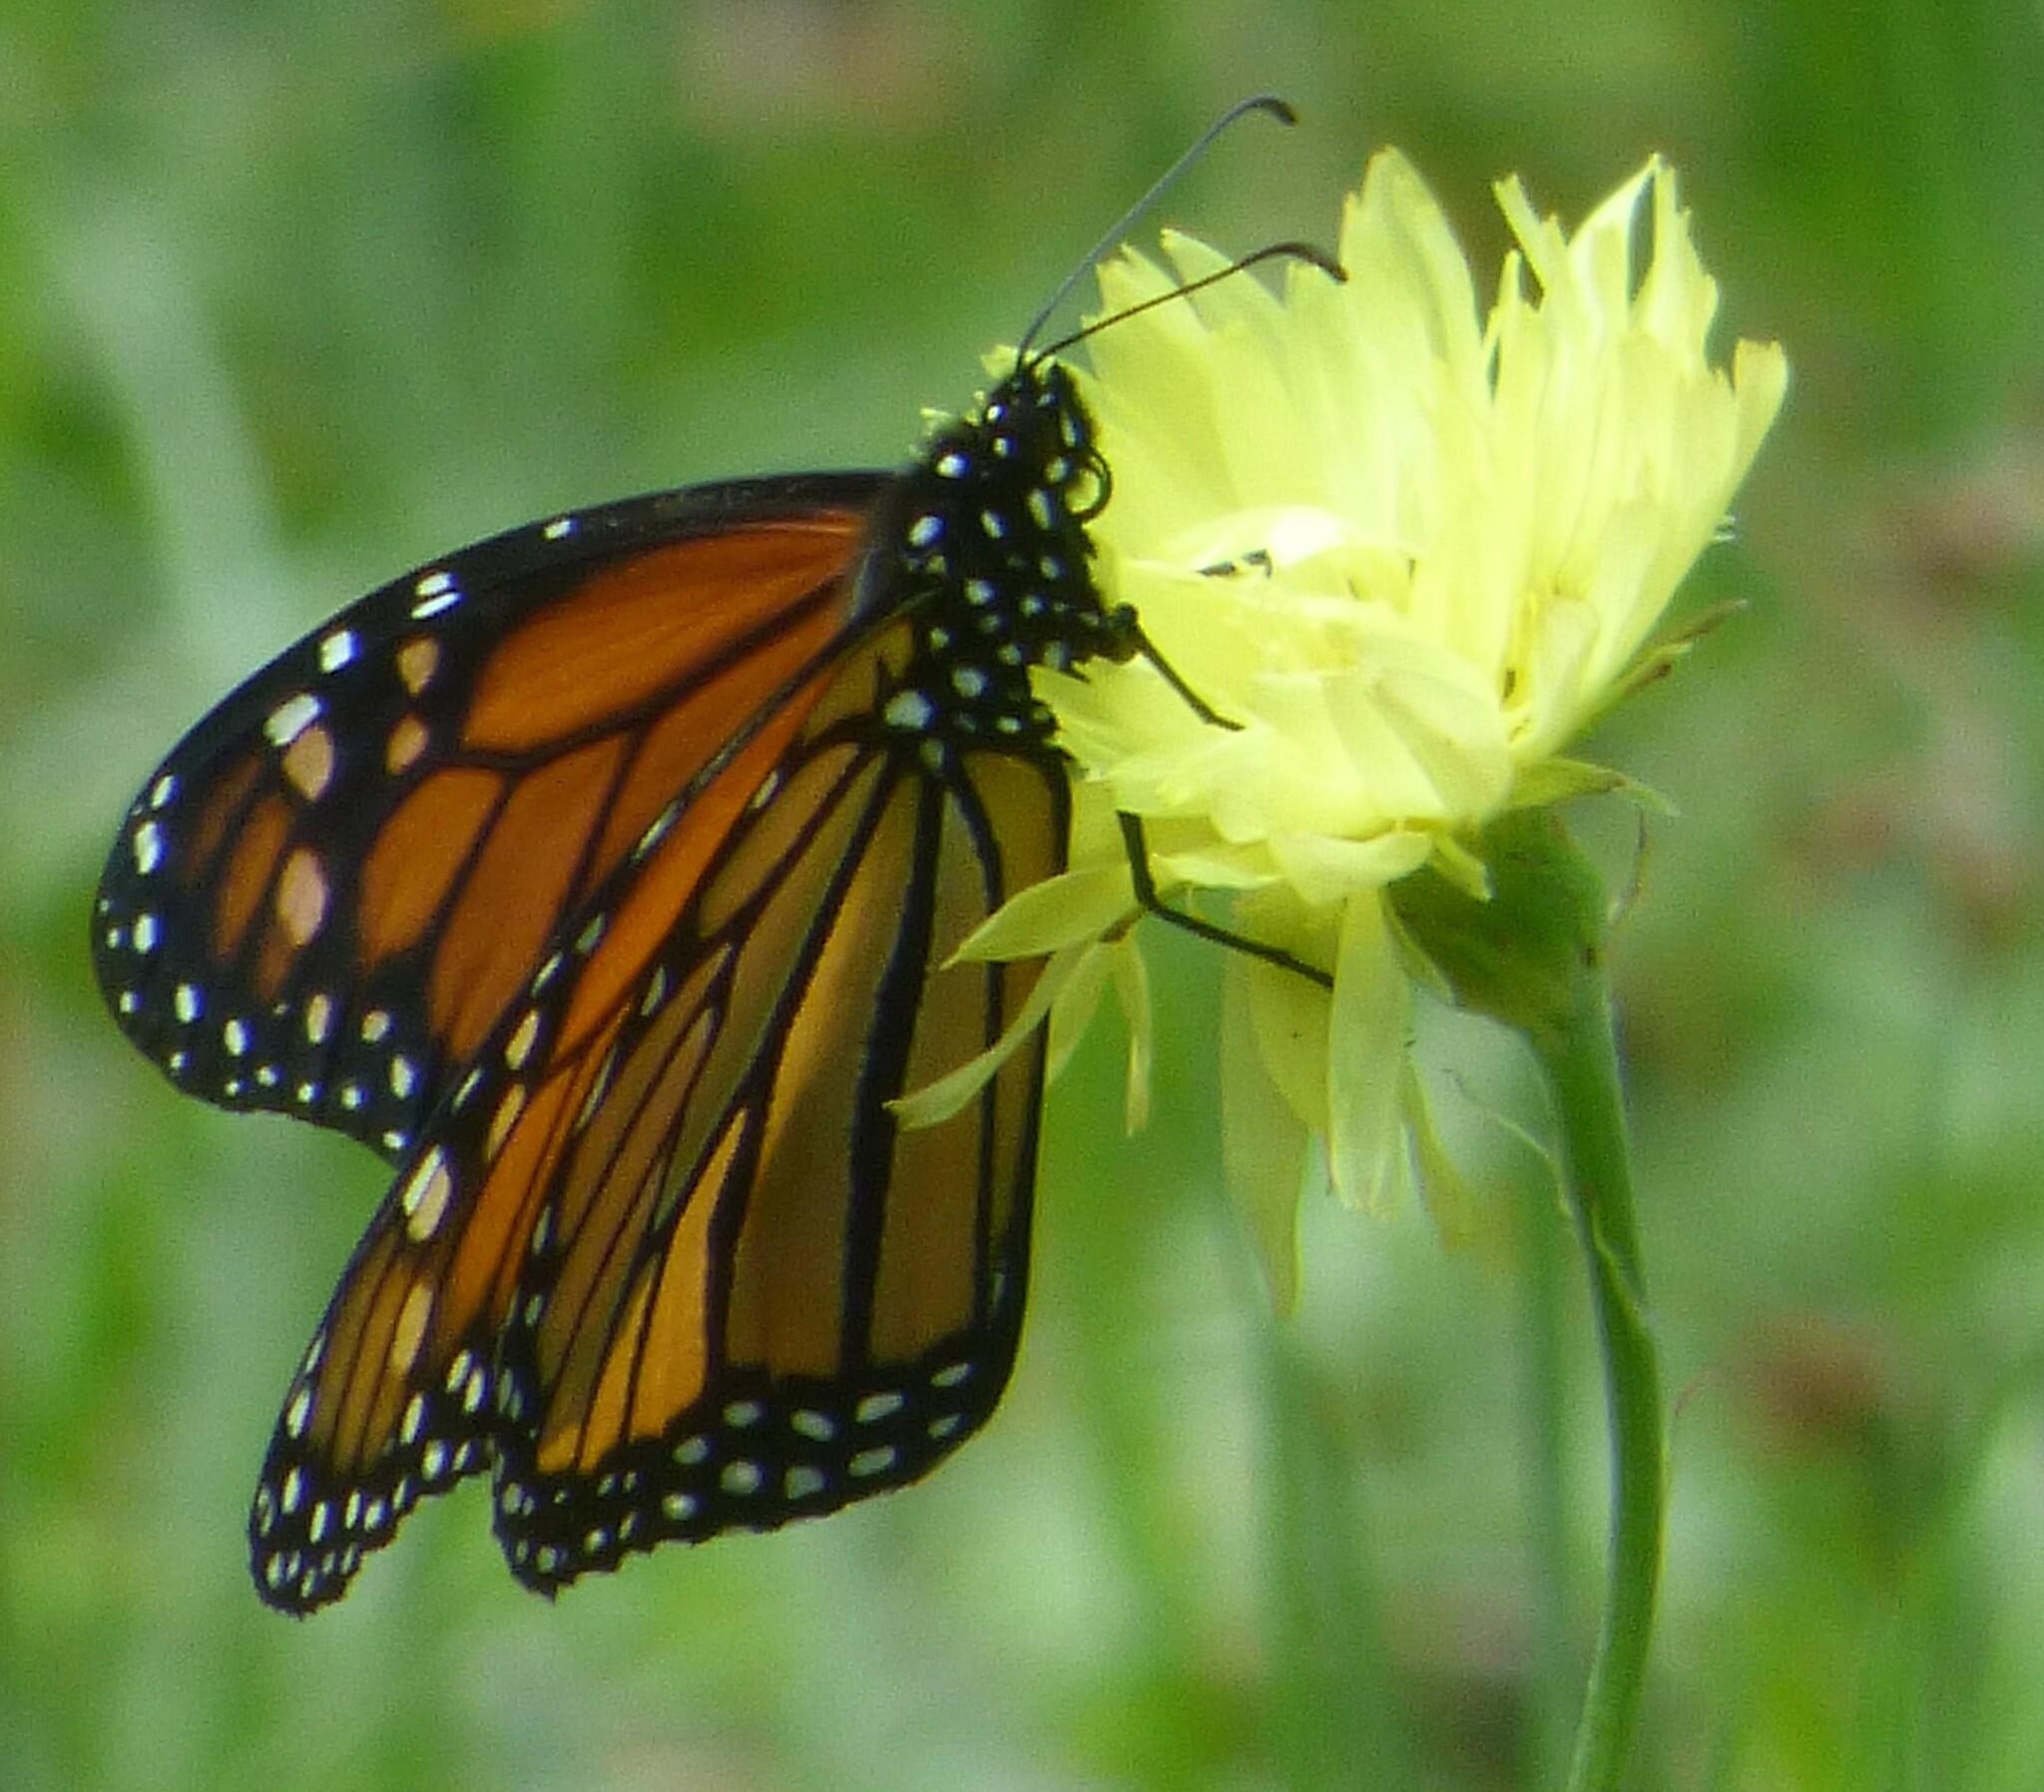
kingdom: Animalia
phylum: Arthropoda
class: Insecta
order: Lepidoptera
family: Nymphalidae
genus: Danaus
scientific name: Danaus plexippus
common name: Monarch
